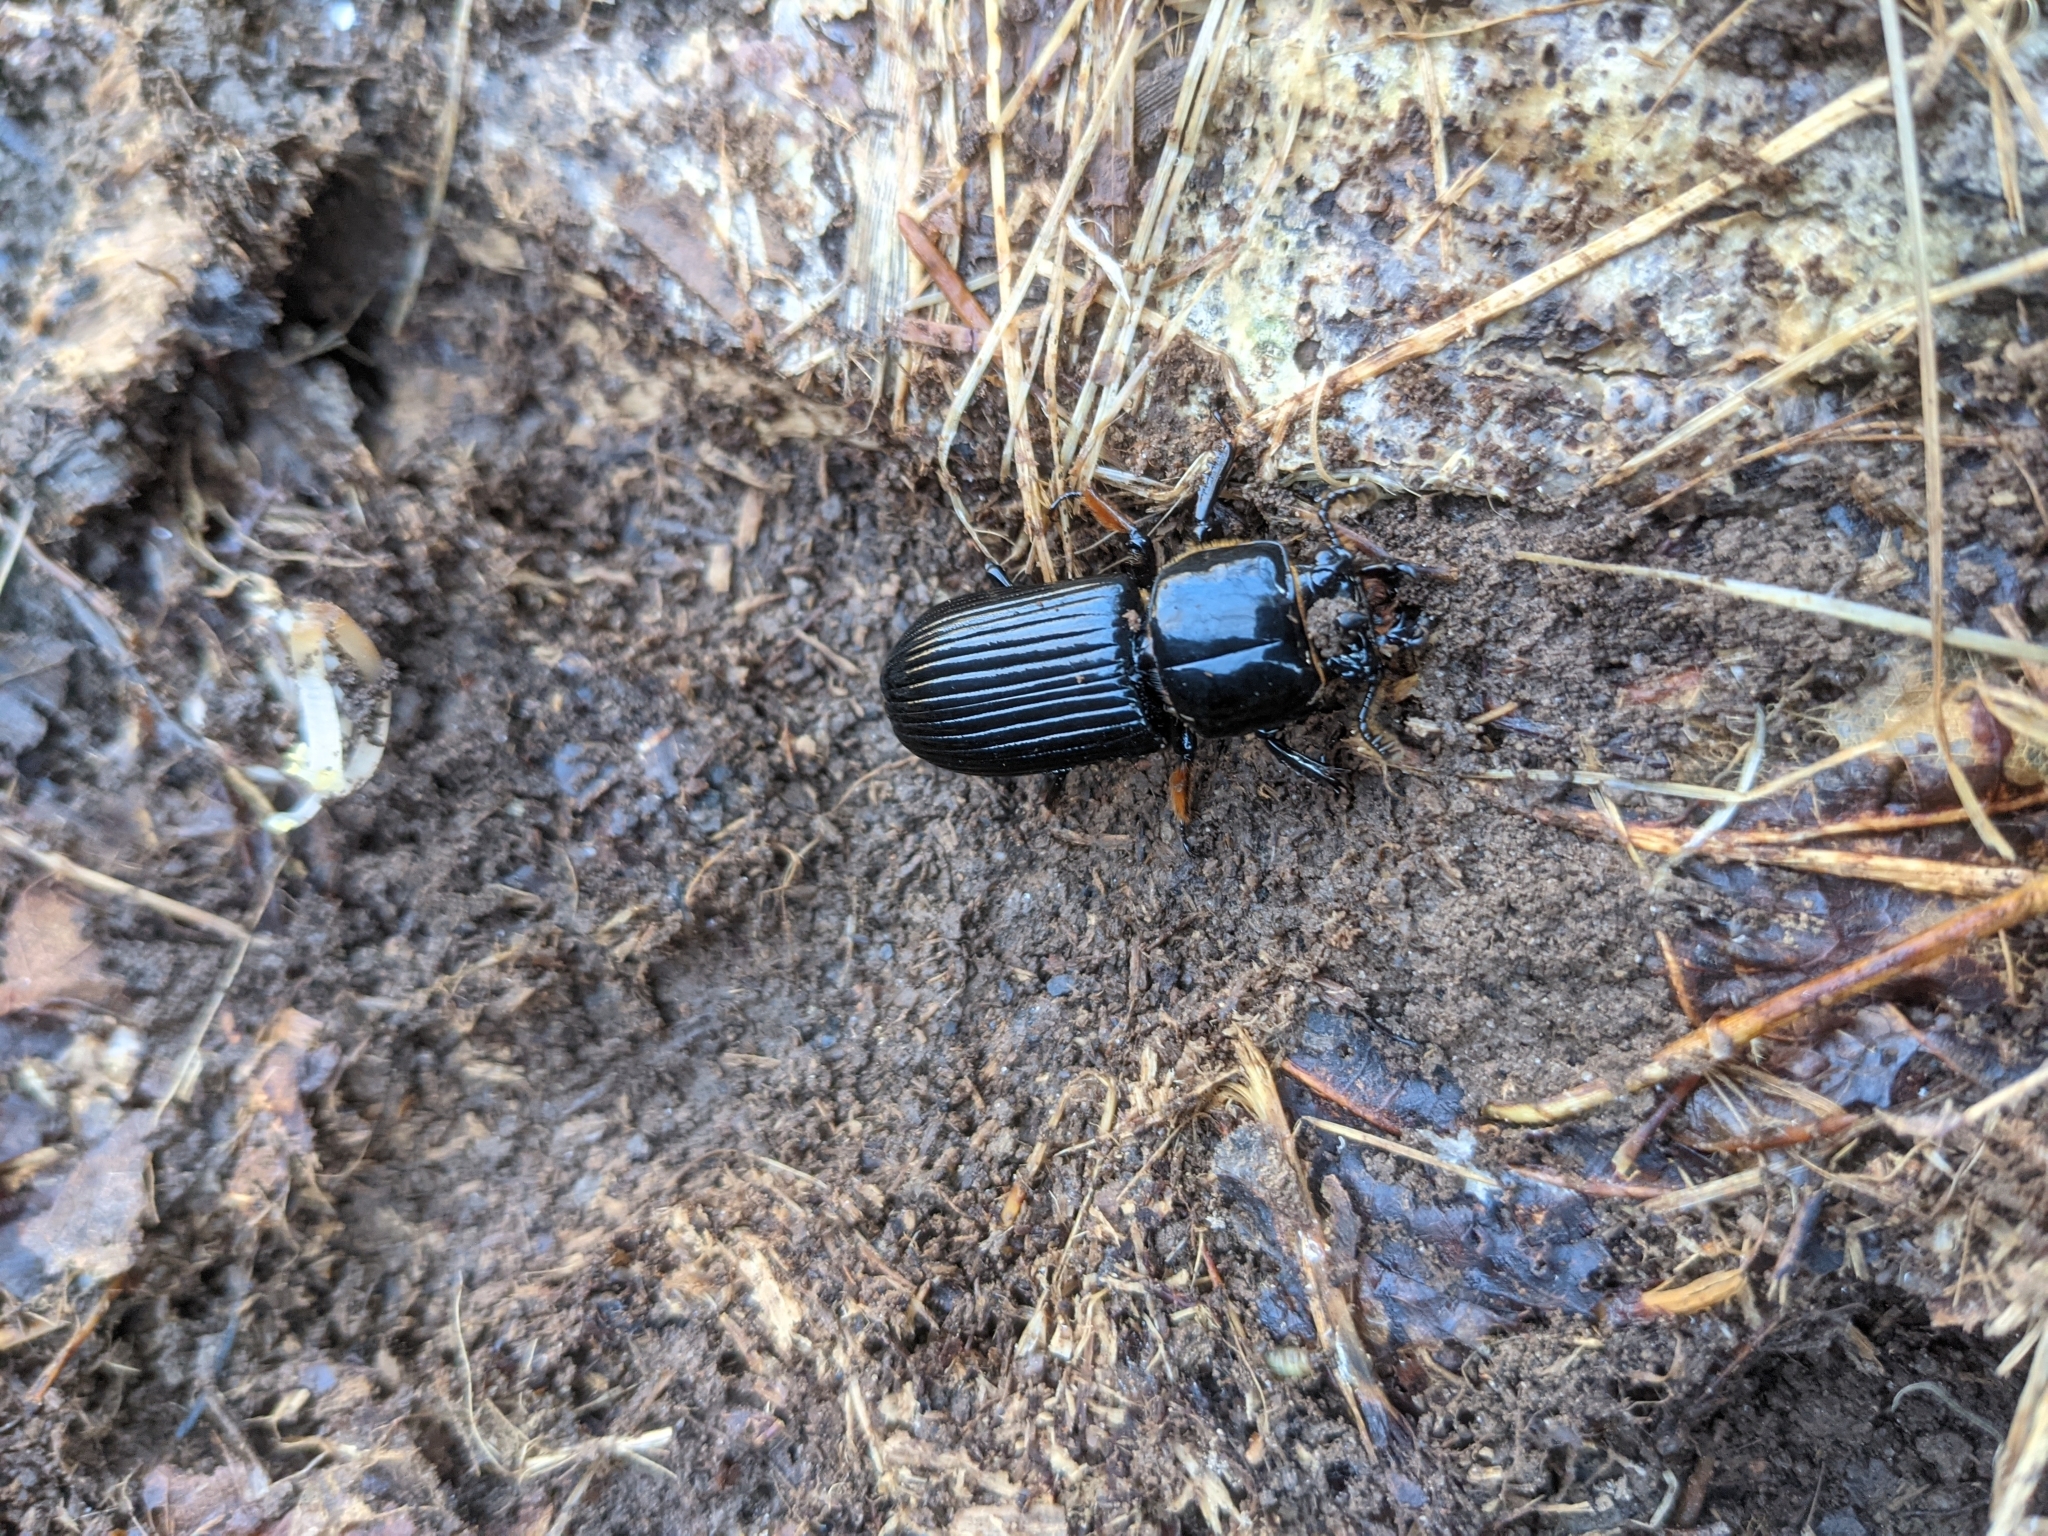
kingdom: Animalia
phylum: Arthropoda
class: Insecta
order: Coleoptera
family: Passalidae
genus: Odontotaenius
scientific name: Odontotaenius disjunctus
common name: Patent leather beetle
